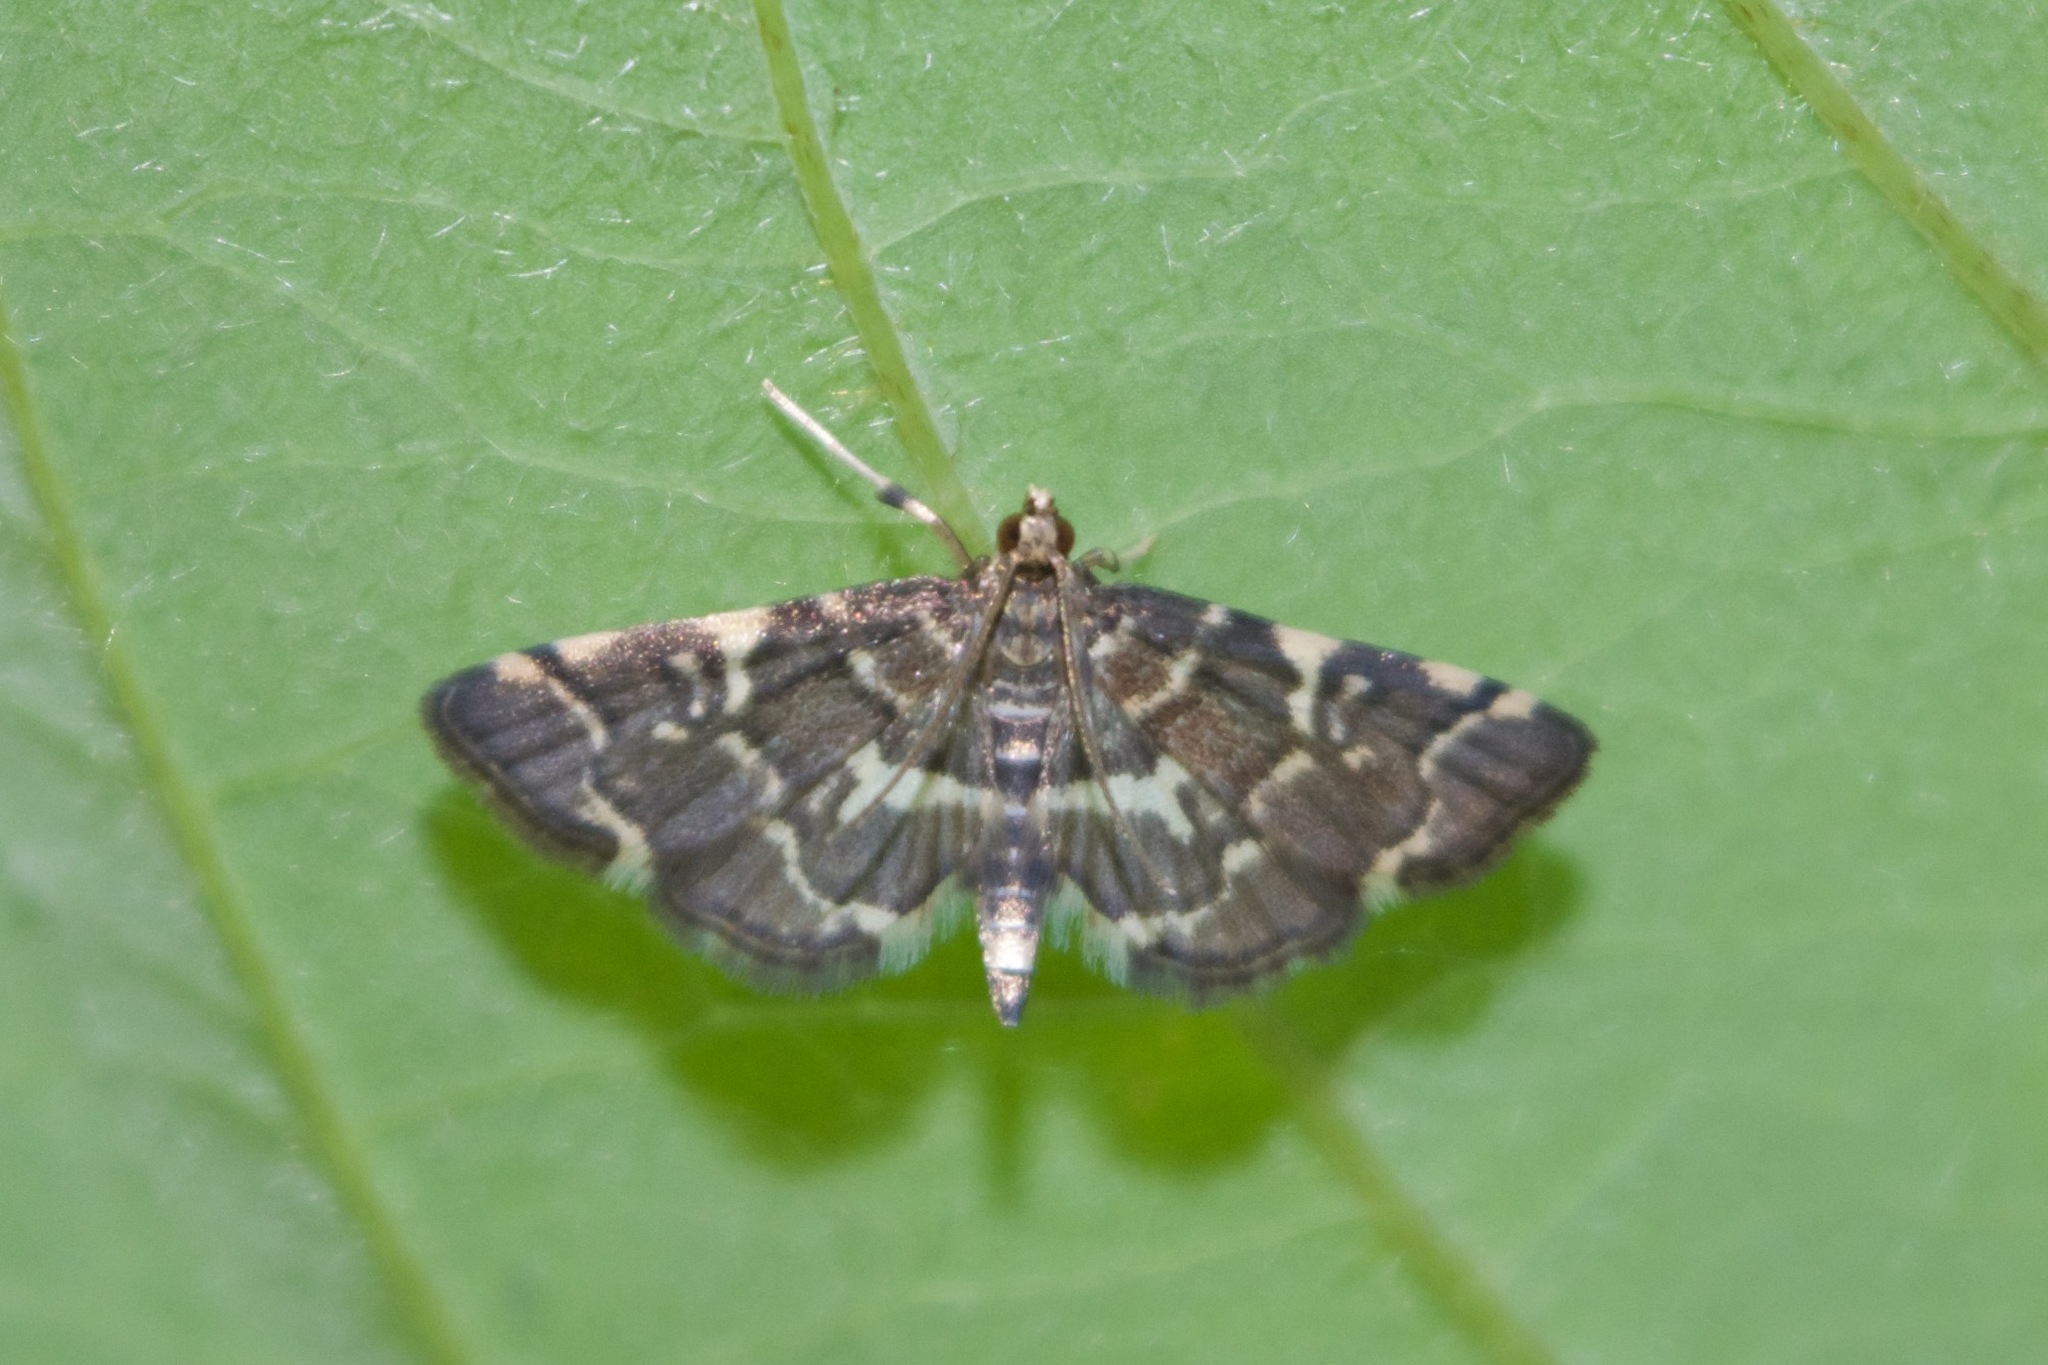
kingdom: Animalia
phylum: Arthropoda
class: Insecta
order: Lepidoptera
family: Crambidae
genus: Anageshna
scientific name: Anageshna primordialis
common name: Yellow-spotted webworm moth
